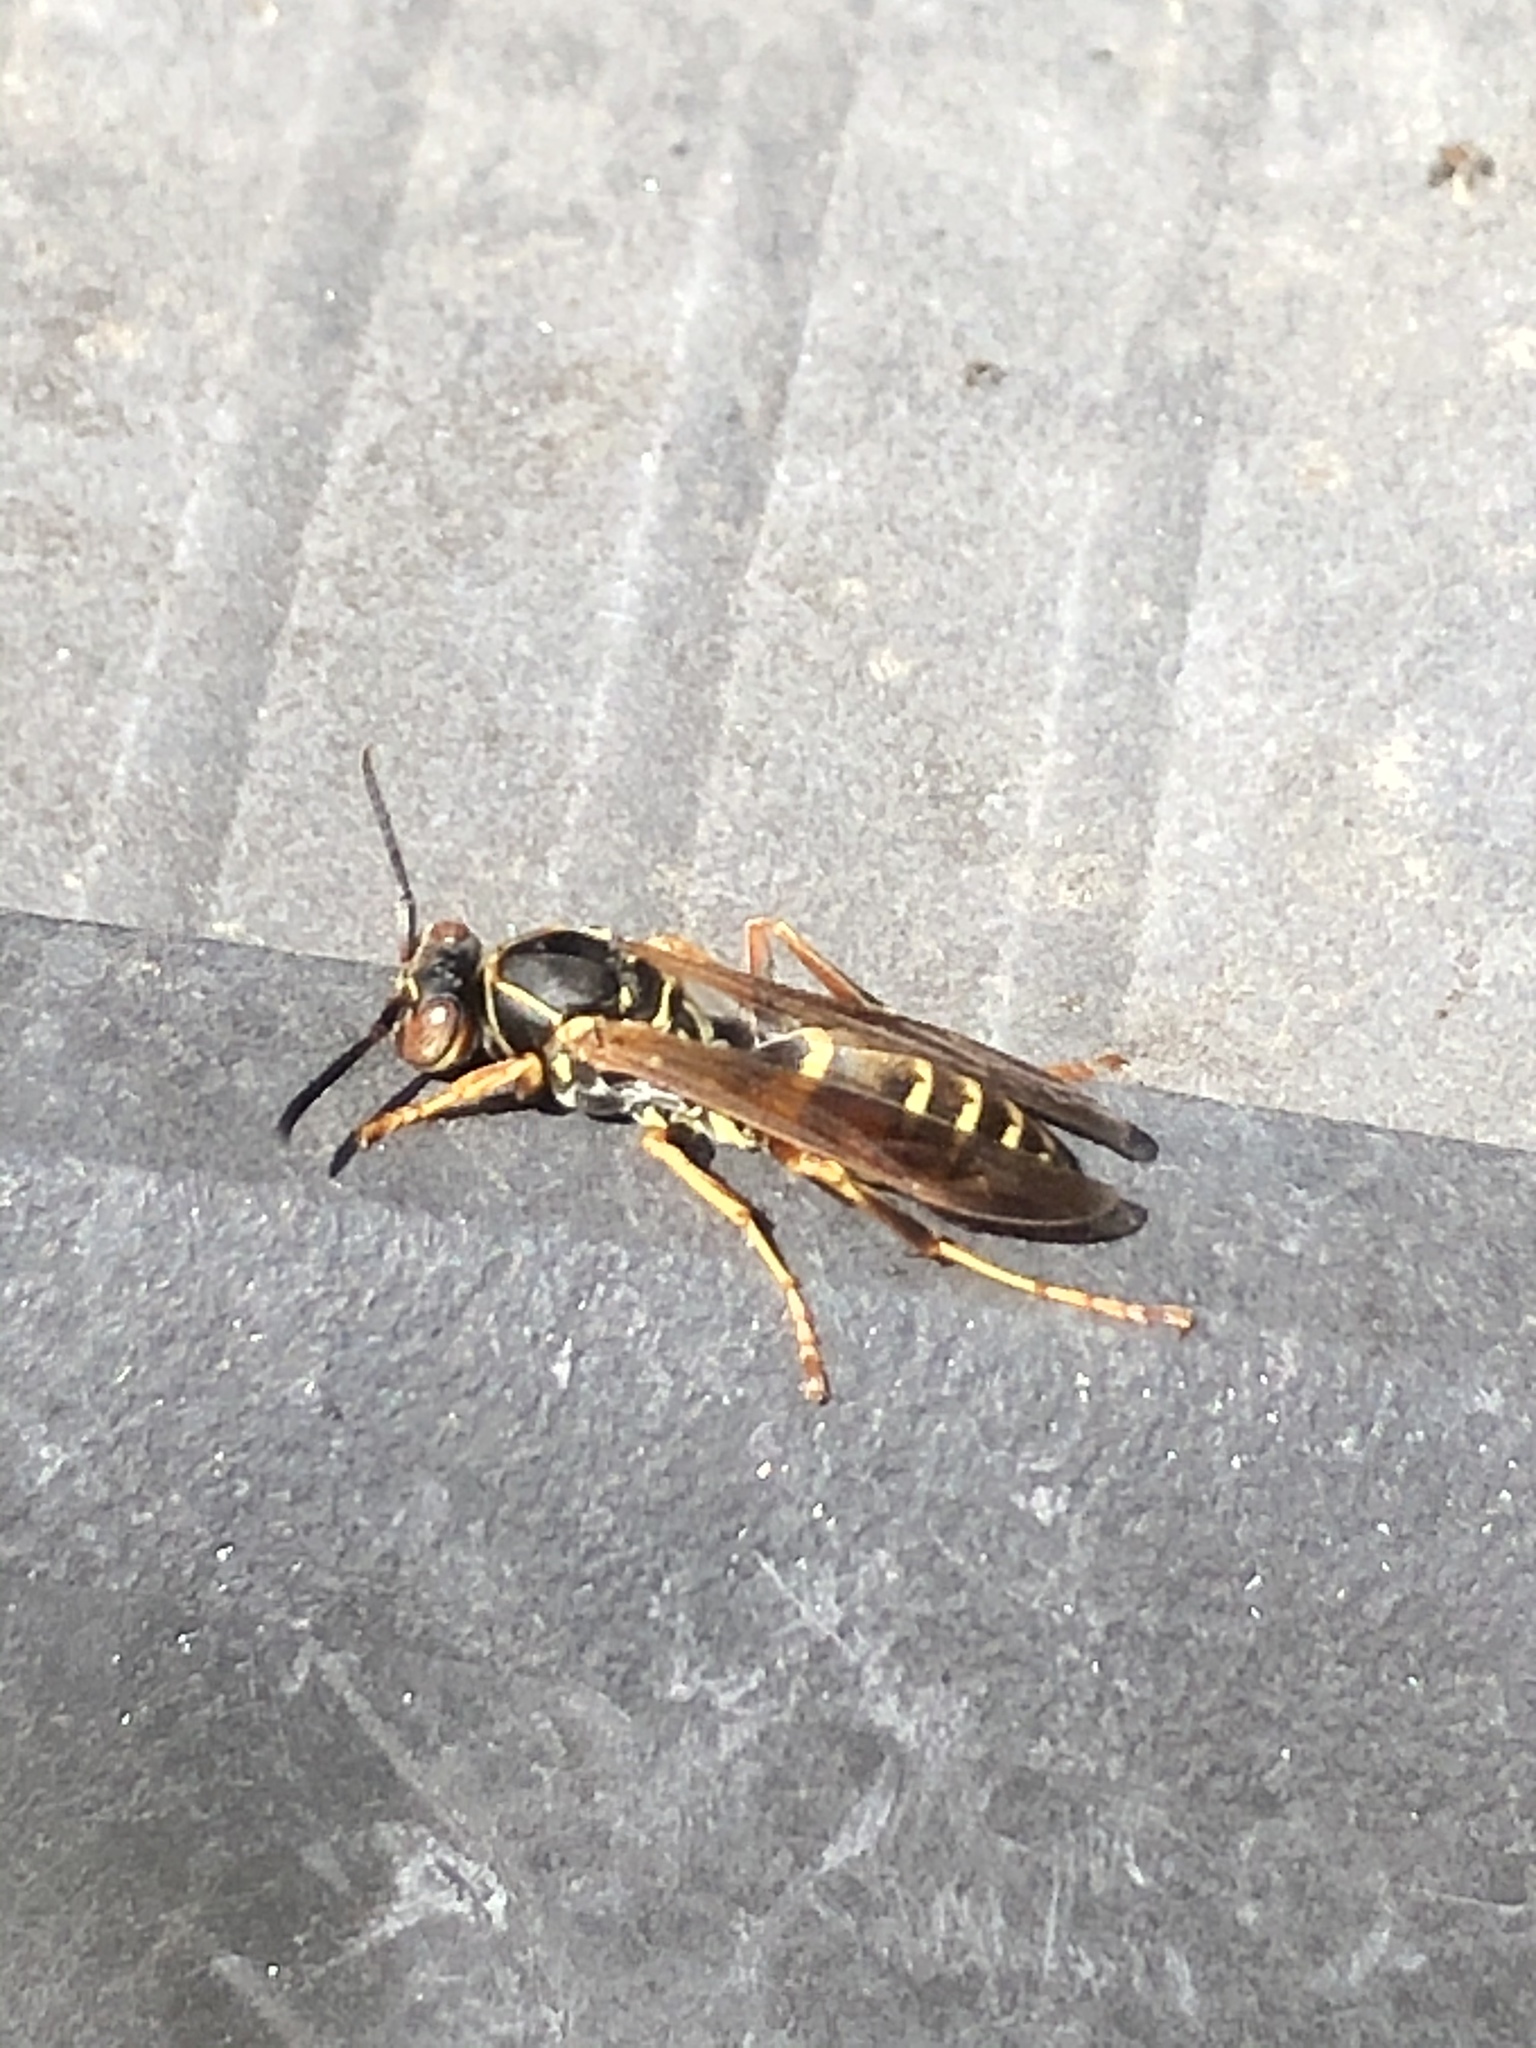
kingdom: Animalia
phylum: Arthropoda
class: Insecta
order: Hymenoptera
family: Eumenidae
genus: Polistes
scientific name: Polistes fuscatus
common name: Dark paper wasp
